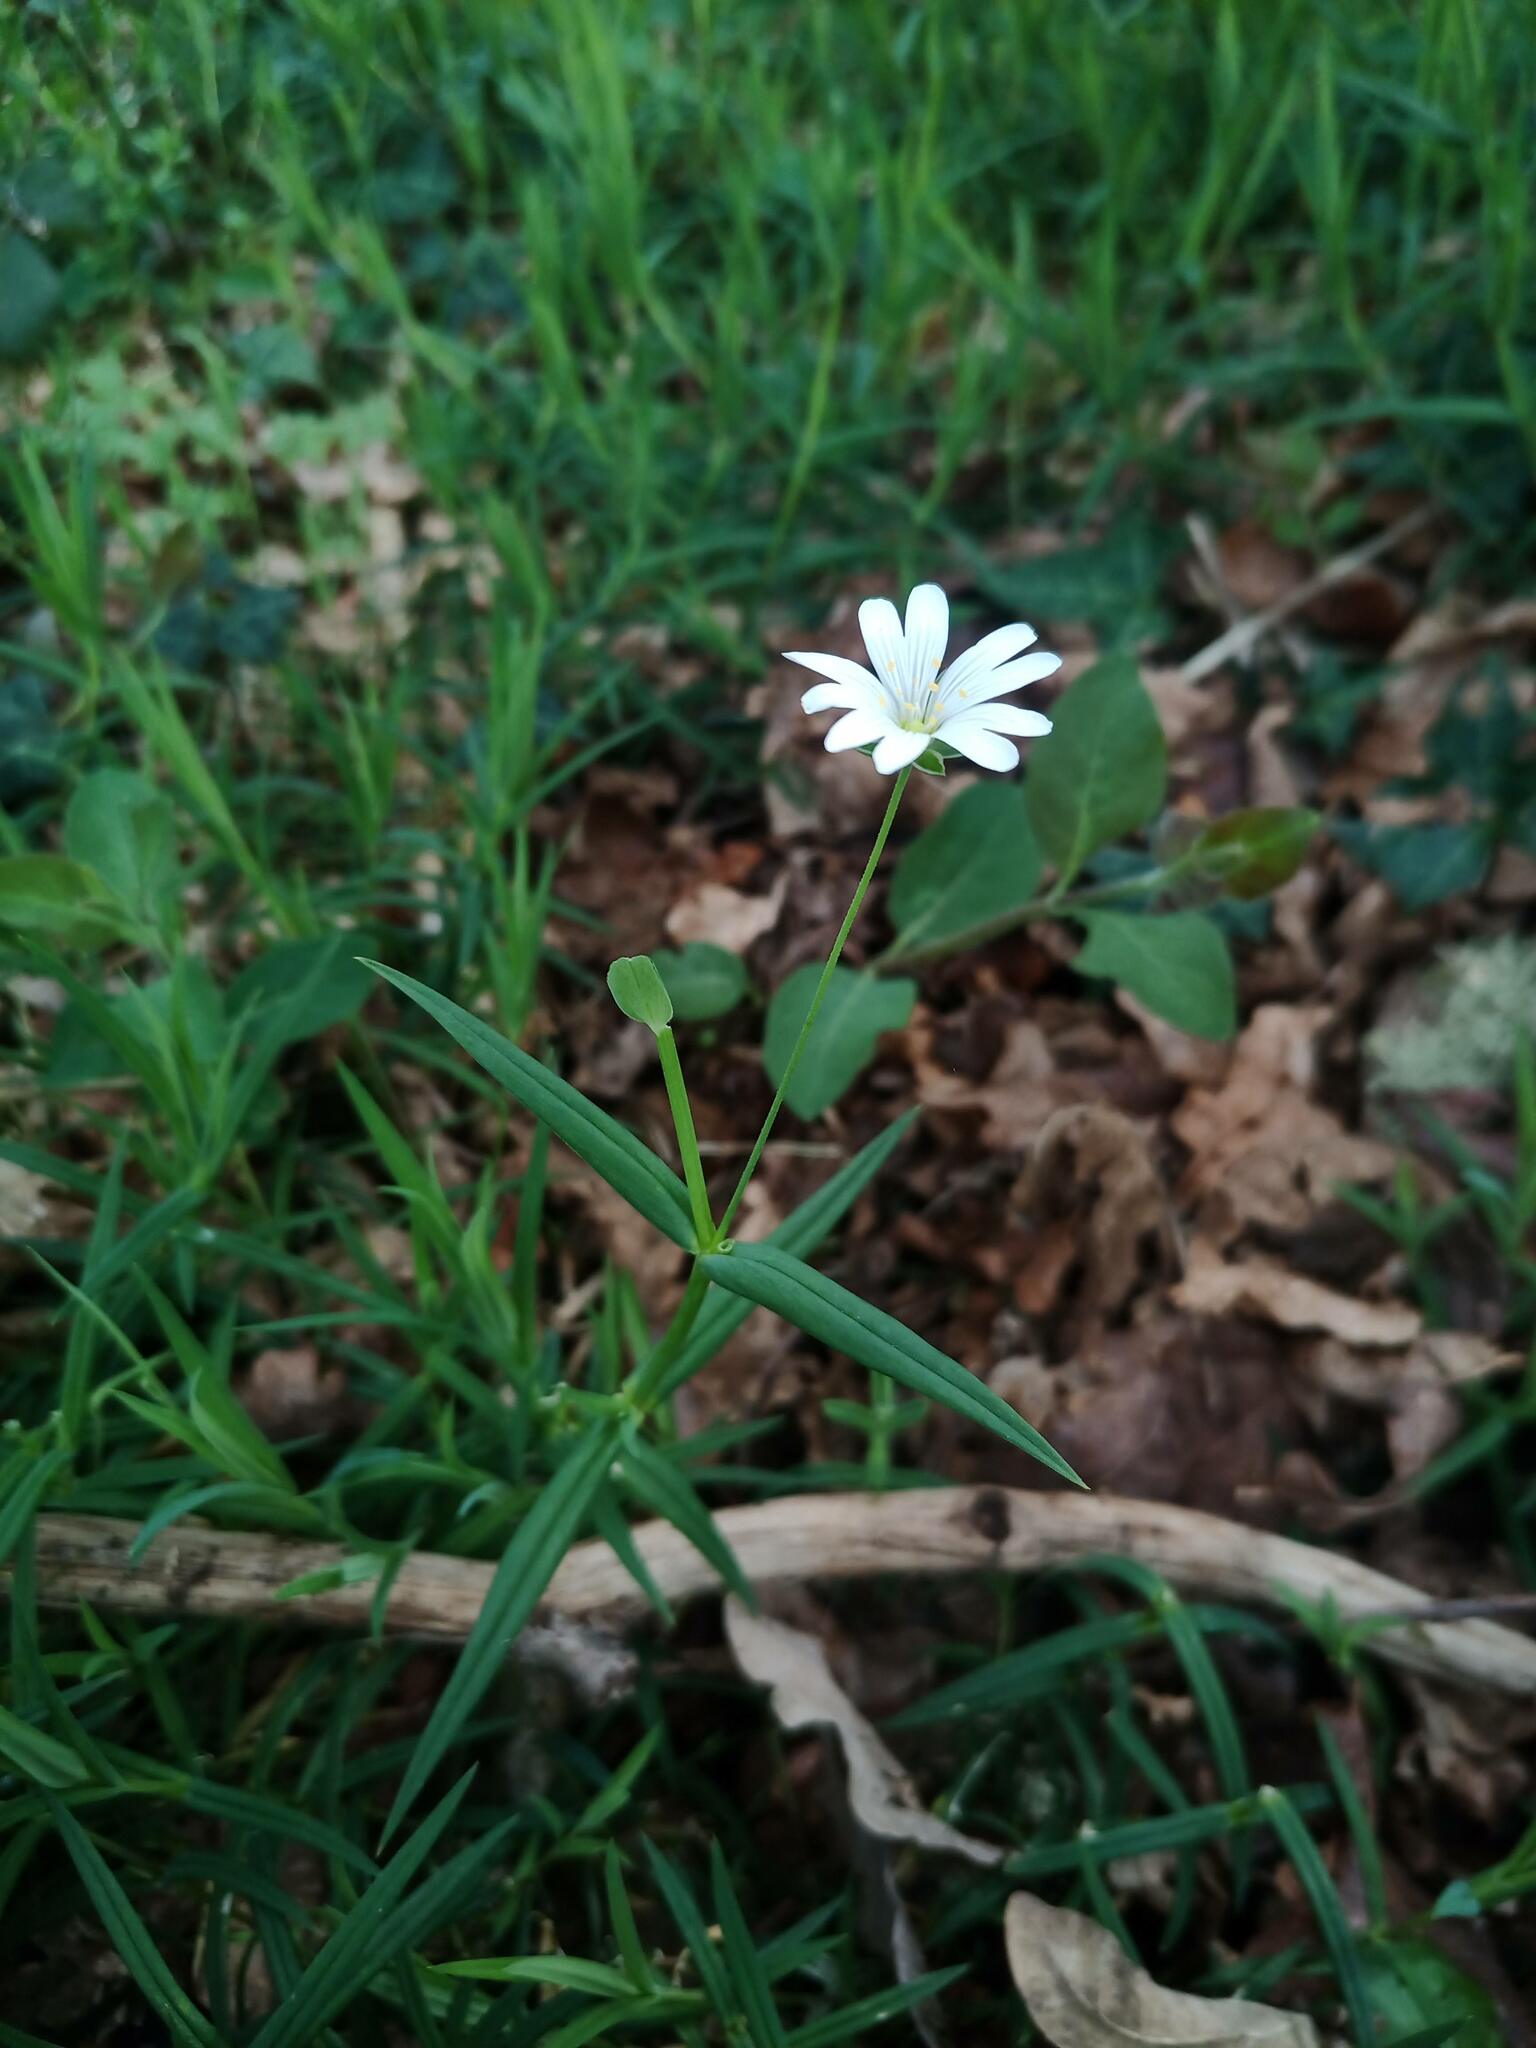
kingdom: Plantae
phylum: Tracheophyta
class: Magnoliopsida
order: Caryophyllales
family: Caryophyllaceae
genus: Rabelera
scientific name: Rabelera holostea
